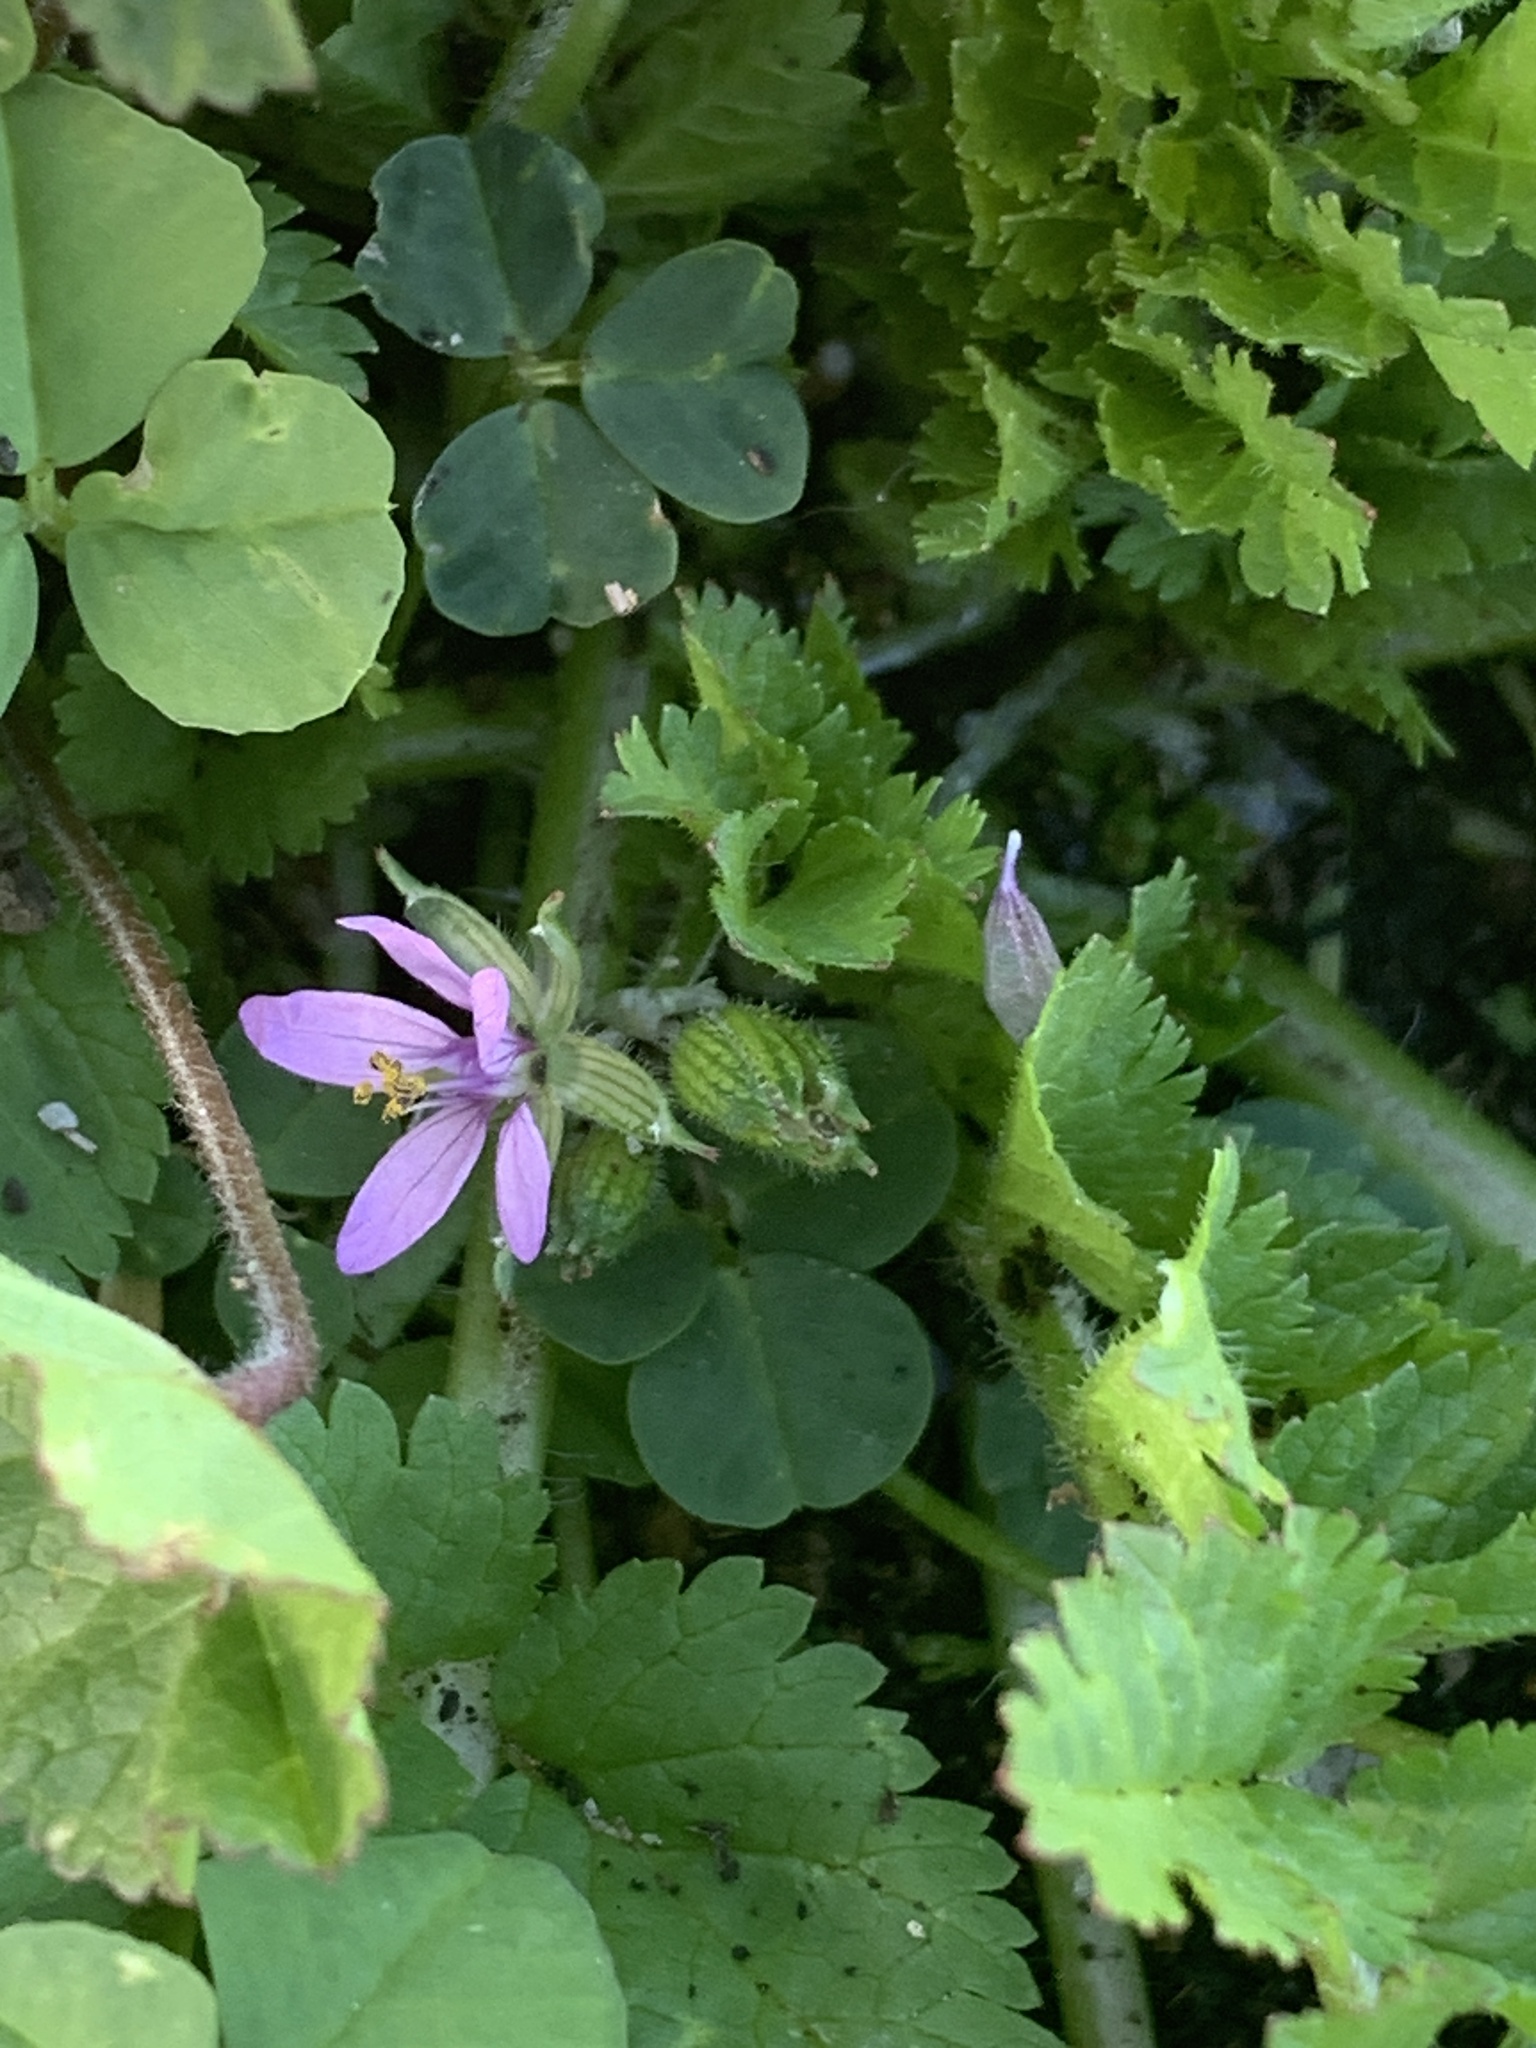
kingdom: Plantae
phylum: Tracheophyta
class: Magnoliopsida
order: Geraniales
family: Geraniaceae
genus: Erodium
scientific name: Erodium moschatum
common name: Musk stork's-bill
